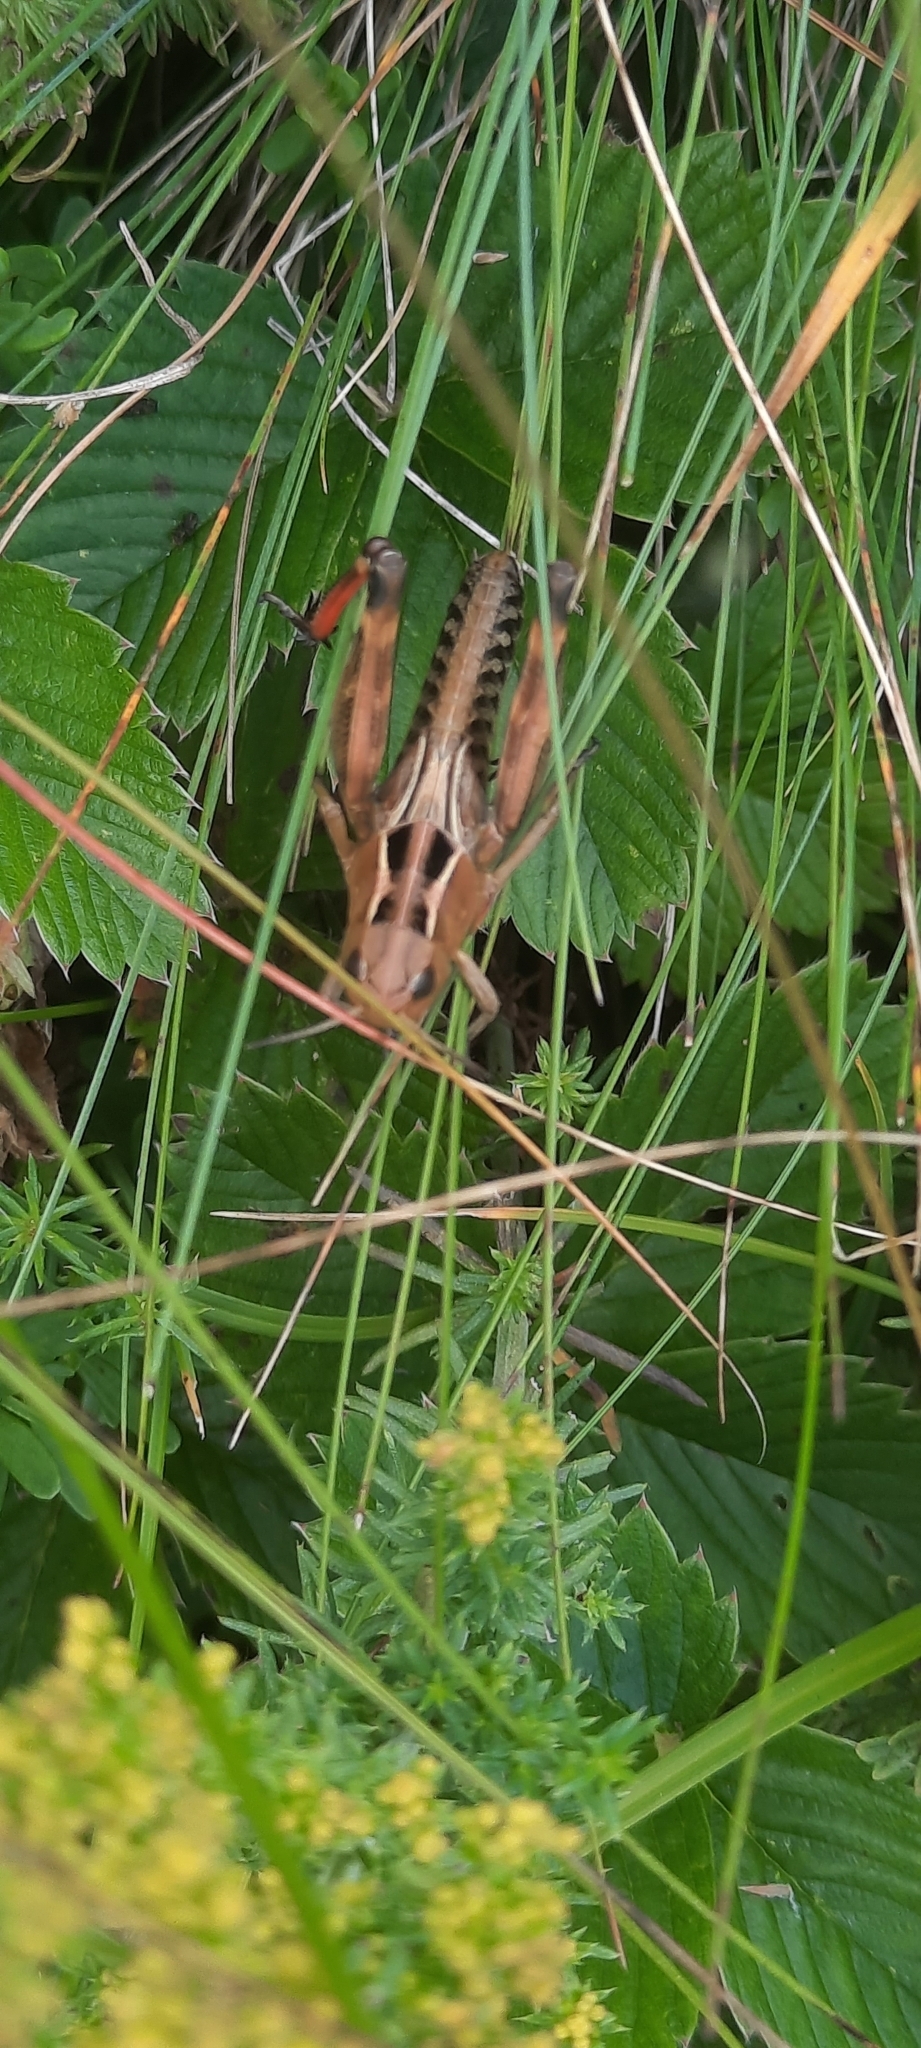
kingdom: Animalia
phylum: Arthropoda
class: Insecta
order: Orthoptera
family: Acrididae
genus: Arcyptera
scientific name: Arcyptera fusca
